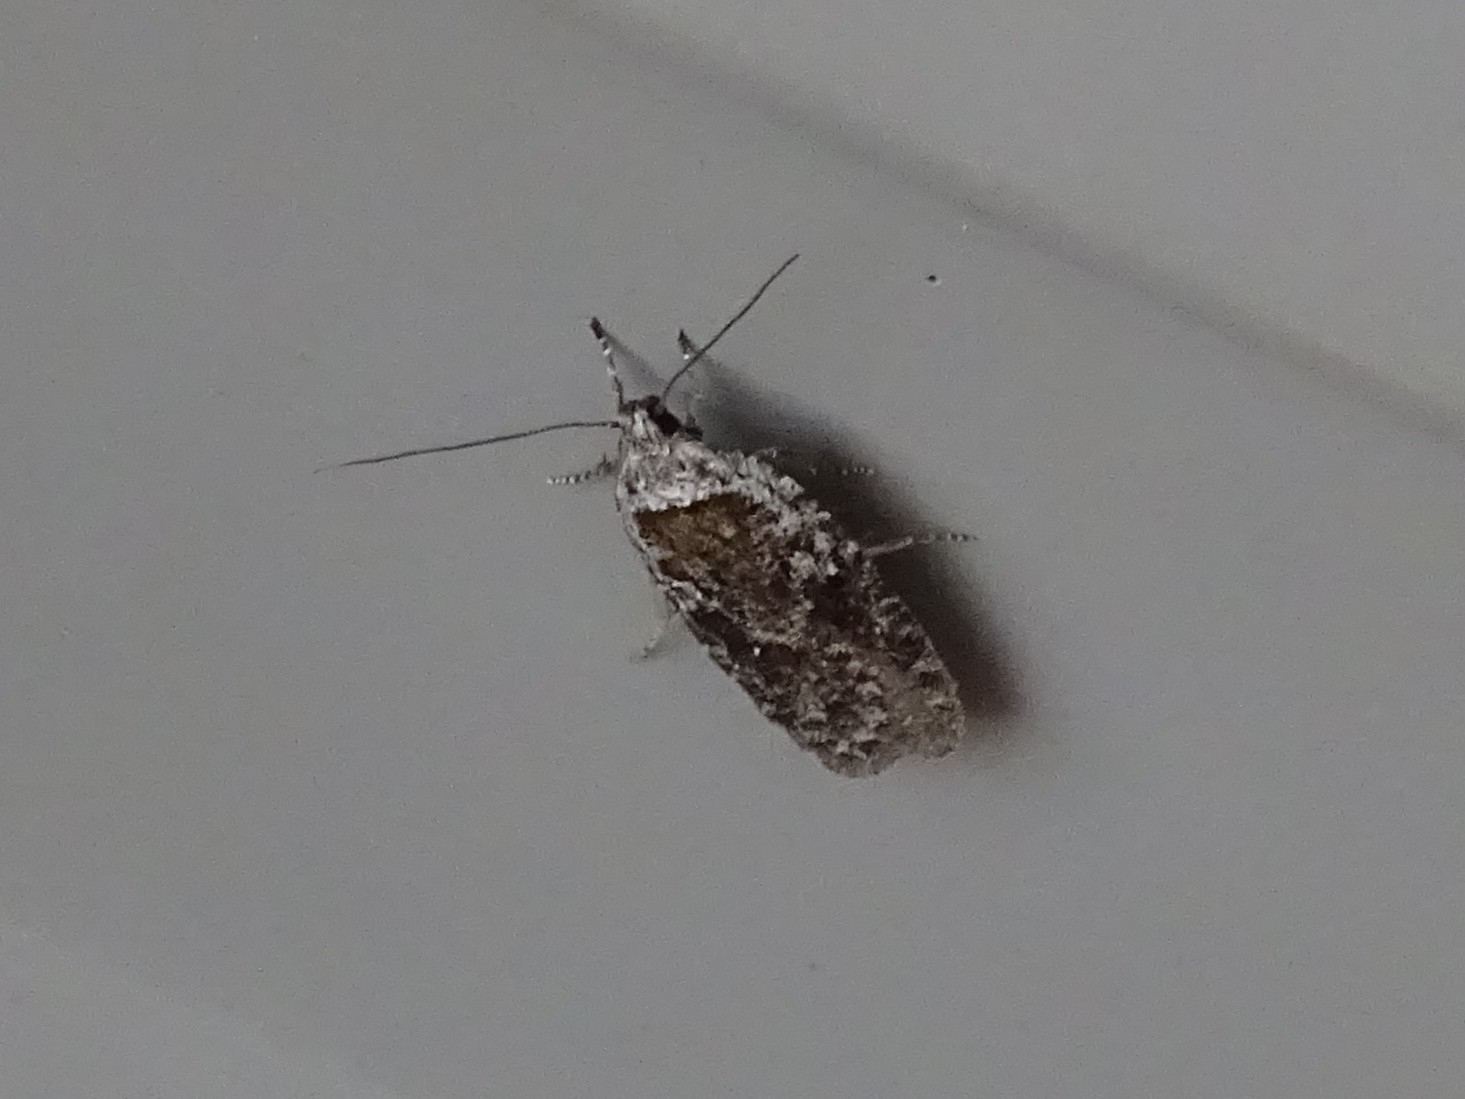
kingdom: Animalia
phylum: Arthropoda
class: Insecta
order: Lepidoptera
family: Depressariidae
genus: Exaeretia
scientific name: Exaeretia ciniflonella
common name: Scotch flat-body
